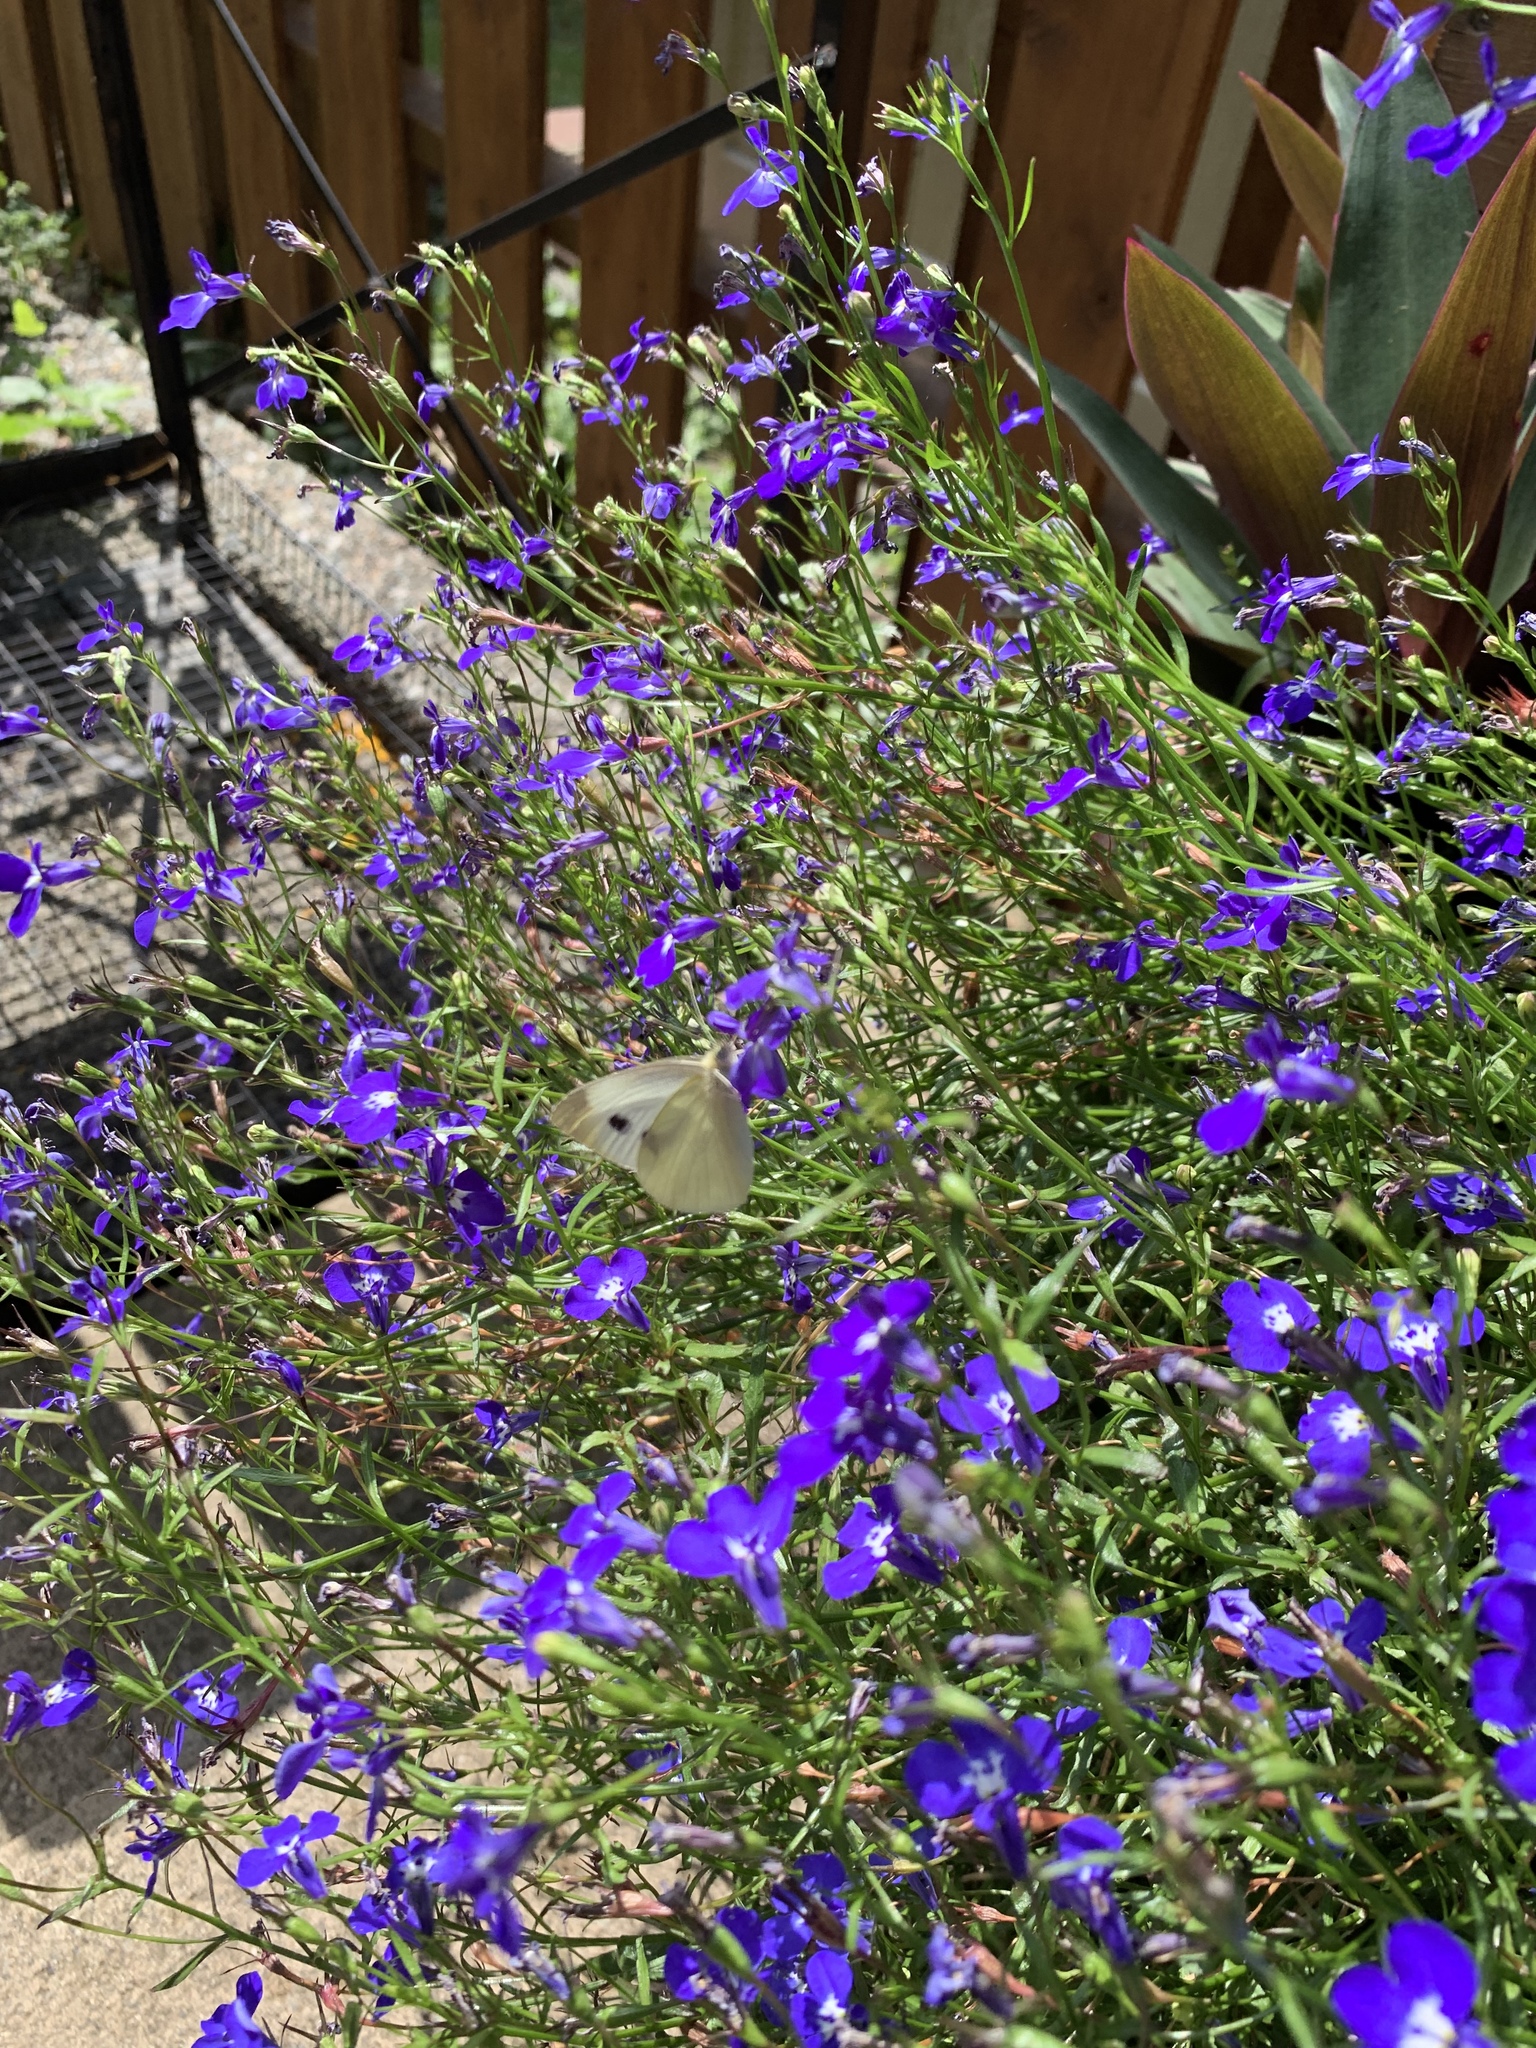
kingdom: Animalia
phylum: Arthropoda
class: Insecta
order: Lepidoptera
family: Pieridae
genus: Pieris
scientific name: Pieris rapae
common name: Small white
